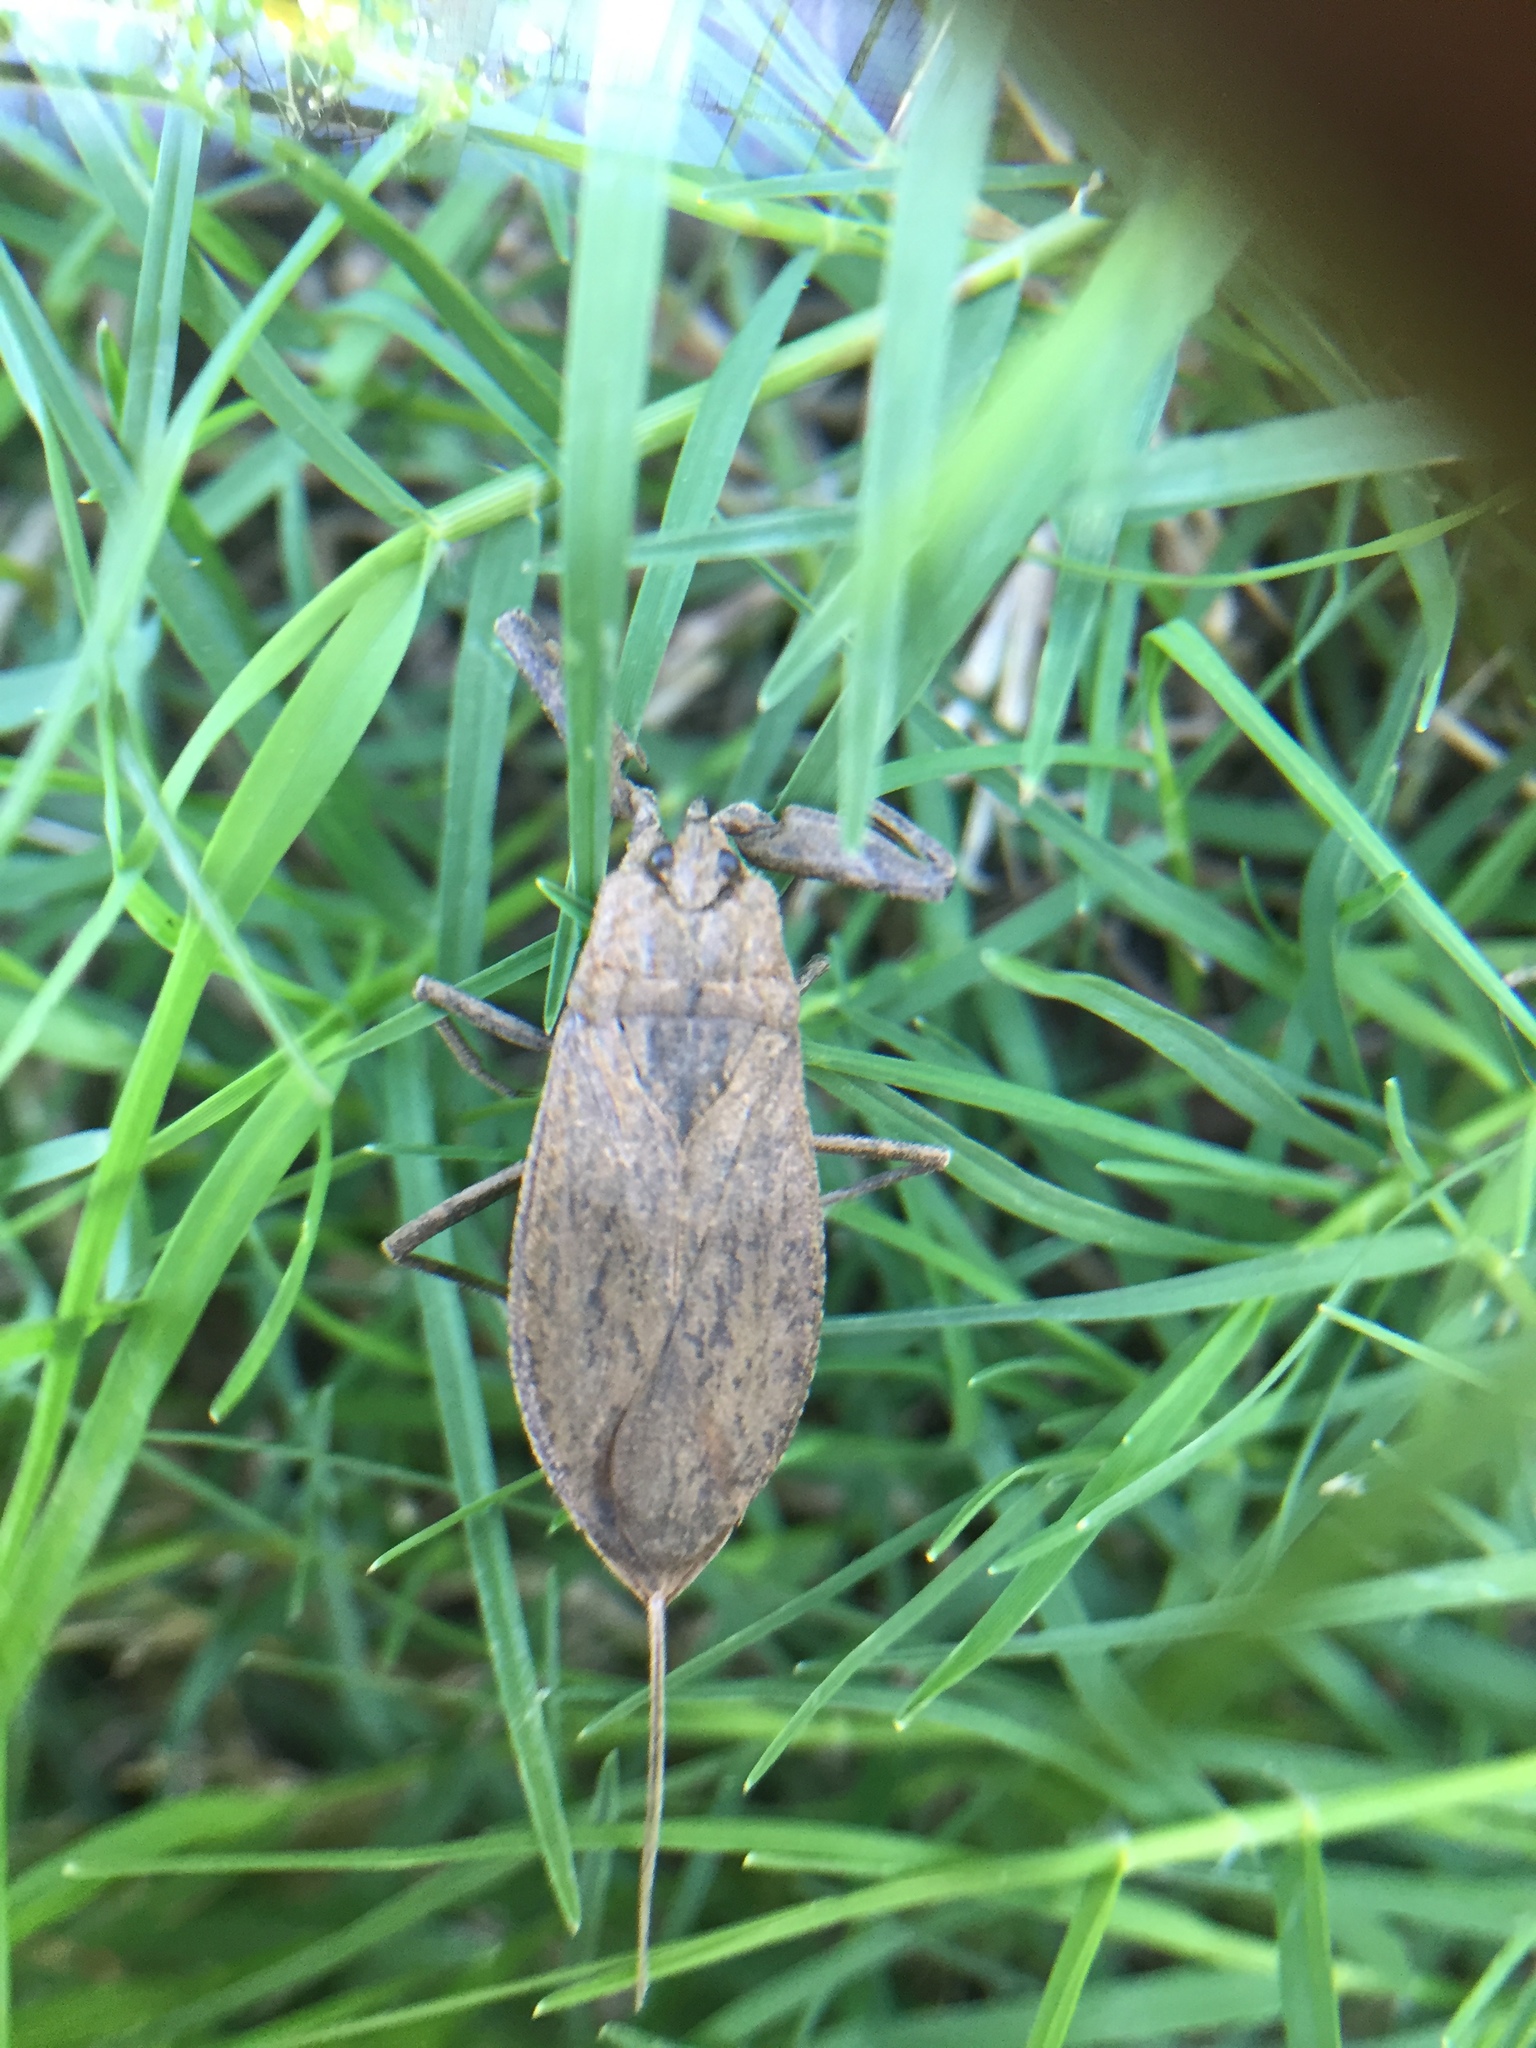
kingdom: Animalia
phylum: Arthropoda
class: Insecta
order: Hemiptera
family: Nepidae
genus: Nepa
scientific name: Nepa cinerea
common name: Water scorpion
